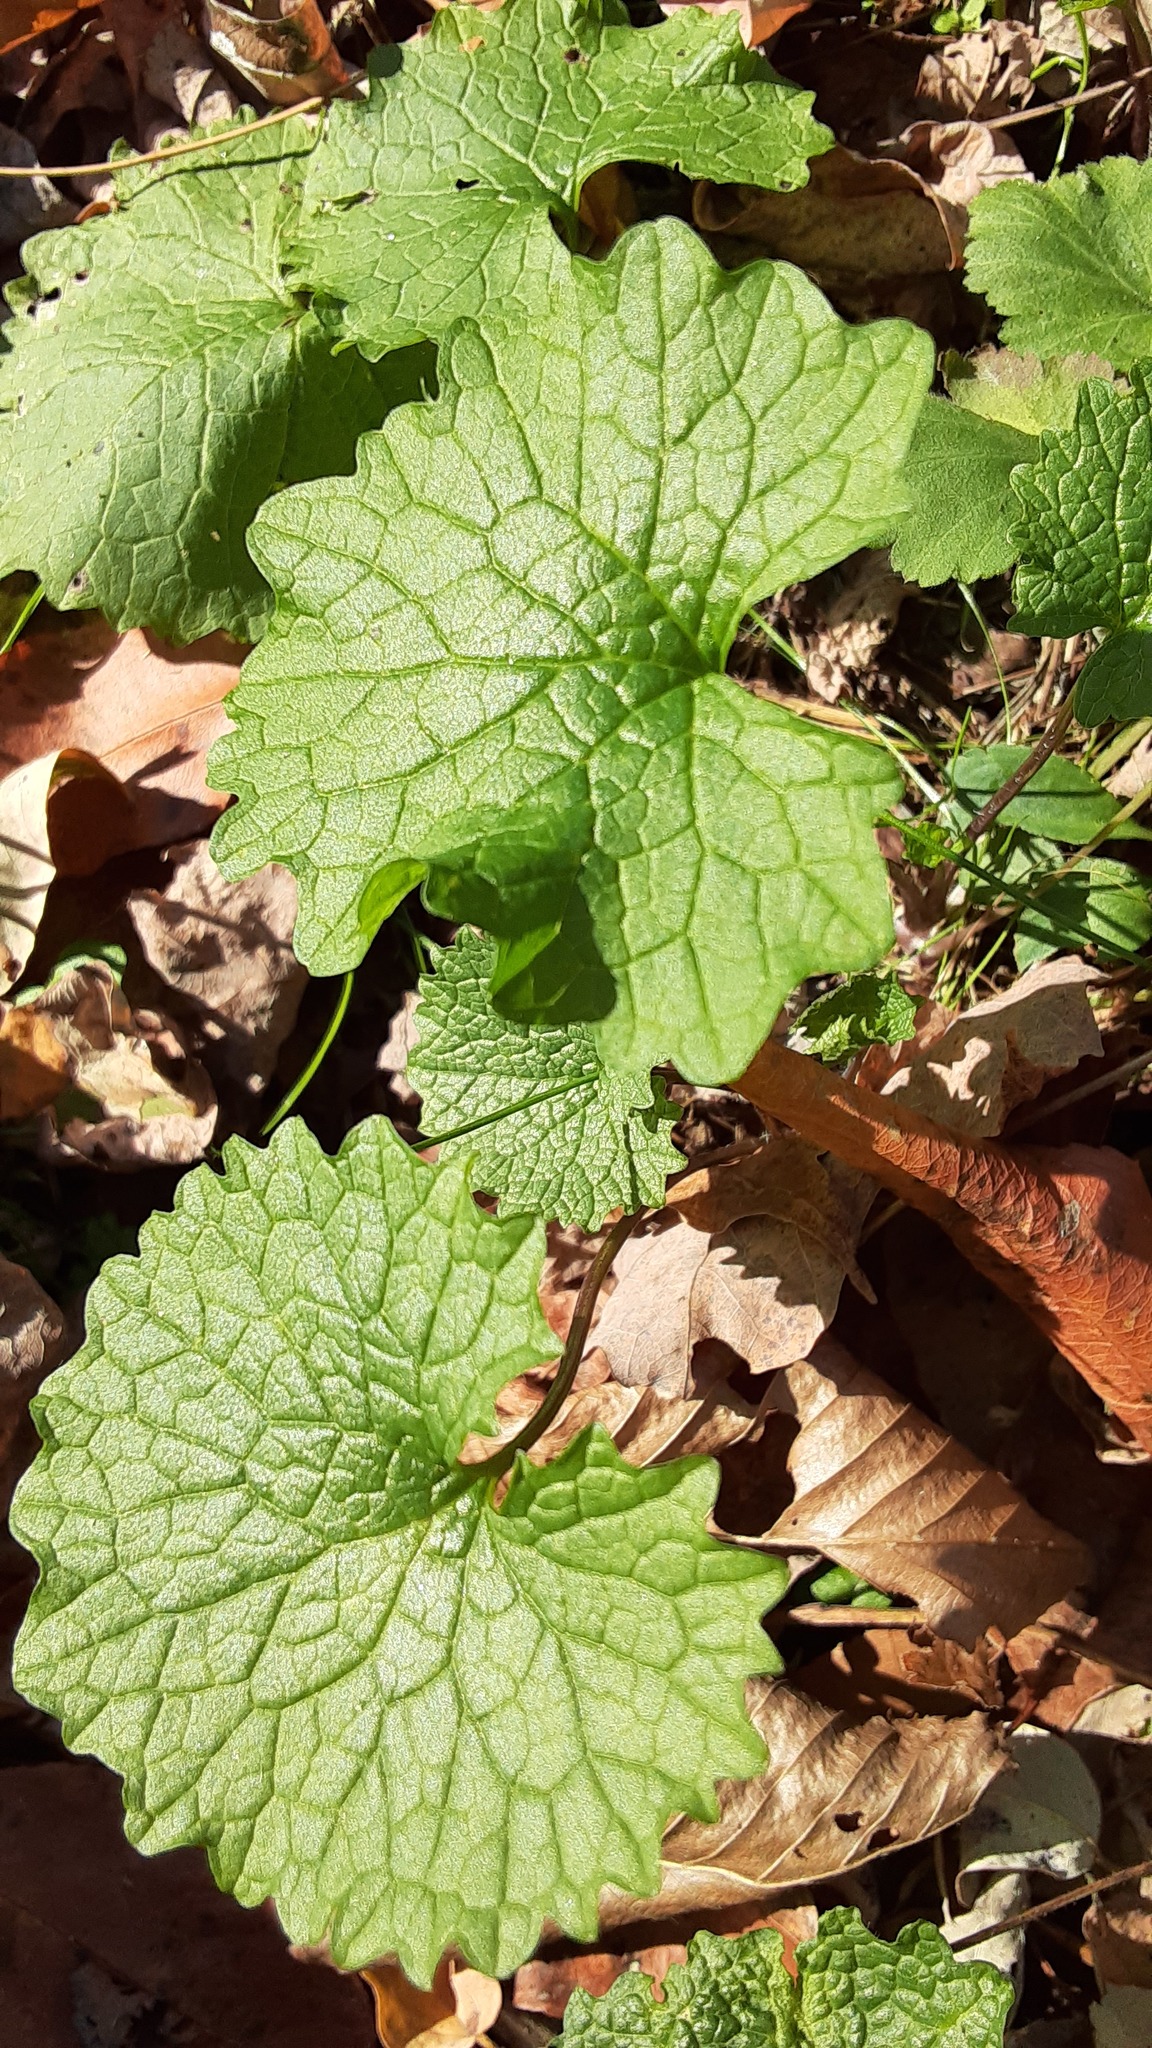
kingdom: Plantae
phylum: Tracheophyta
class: Magnoliopsida
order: Brassicales
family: Brassicaceae
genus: Alliaria
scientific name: Alliaria petiolata
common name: Garlic mustard
